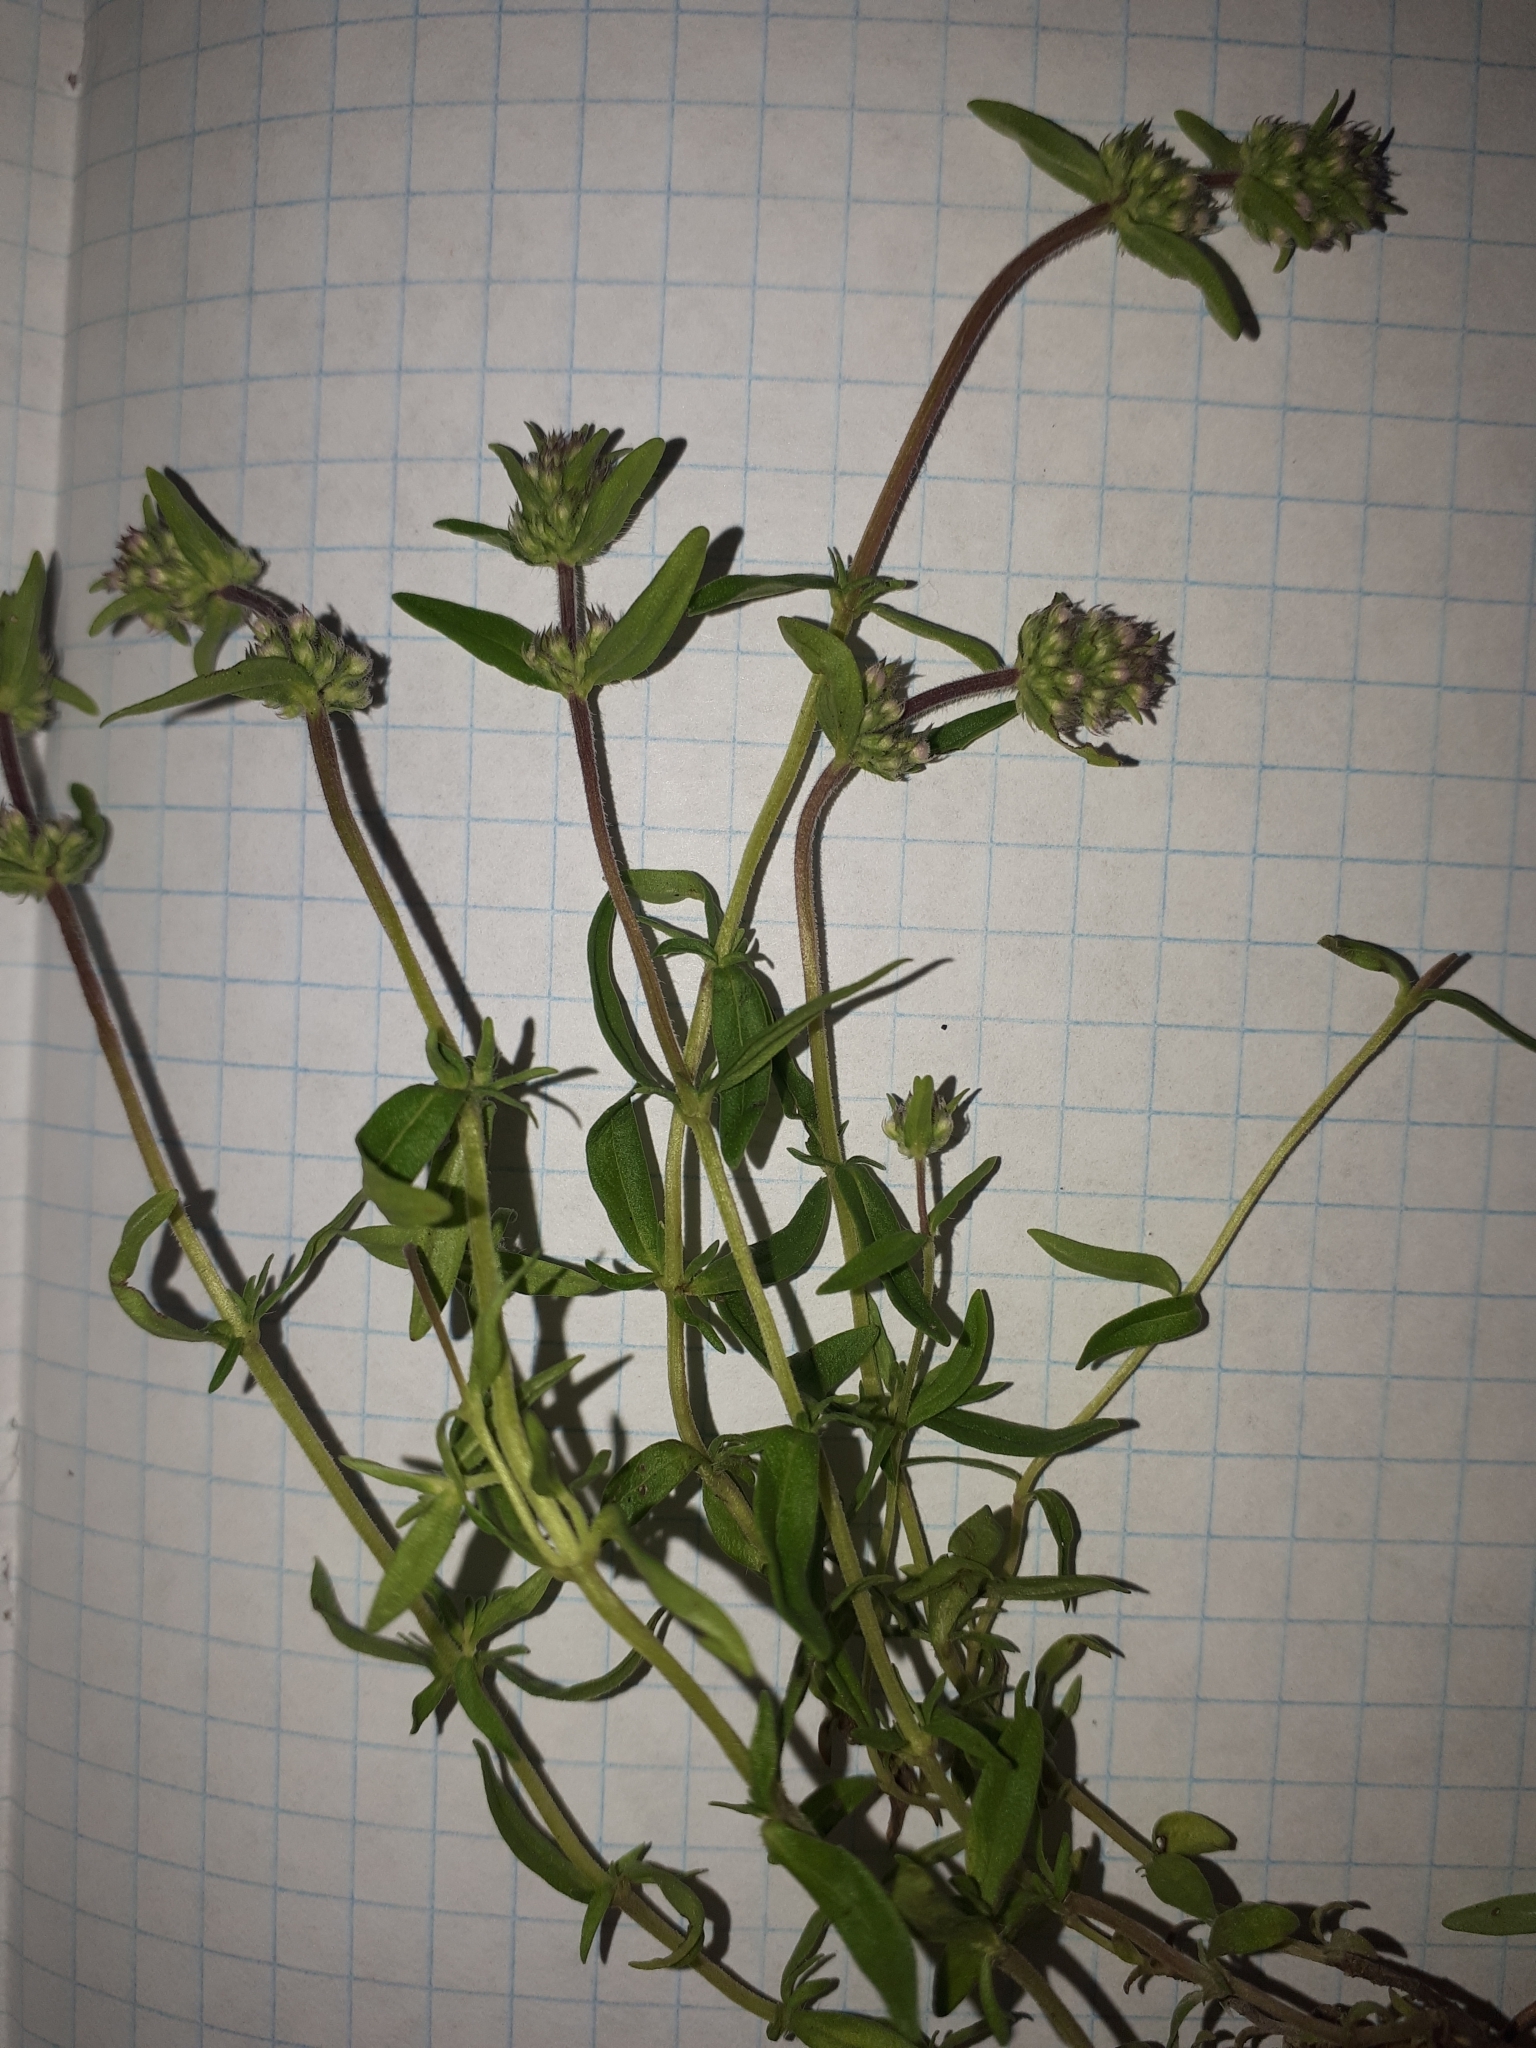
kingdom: Plantae
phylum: Tracheophyta
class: Magnoliopsida
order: Lamiales
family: Lamiaceae
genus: Thymus
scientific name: Thymus pannonicus
